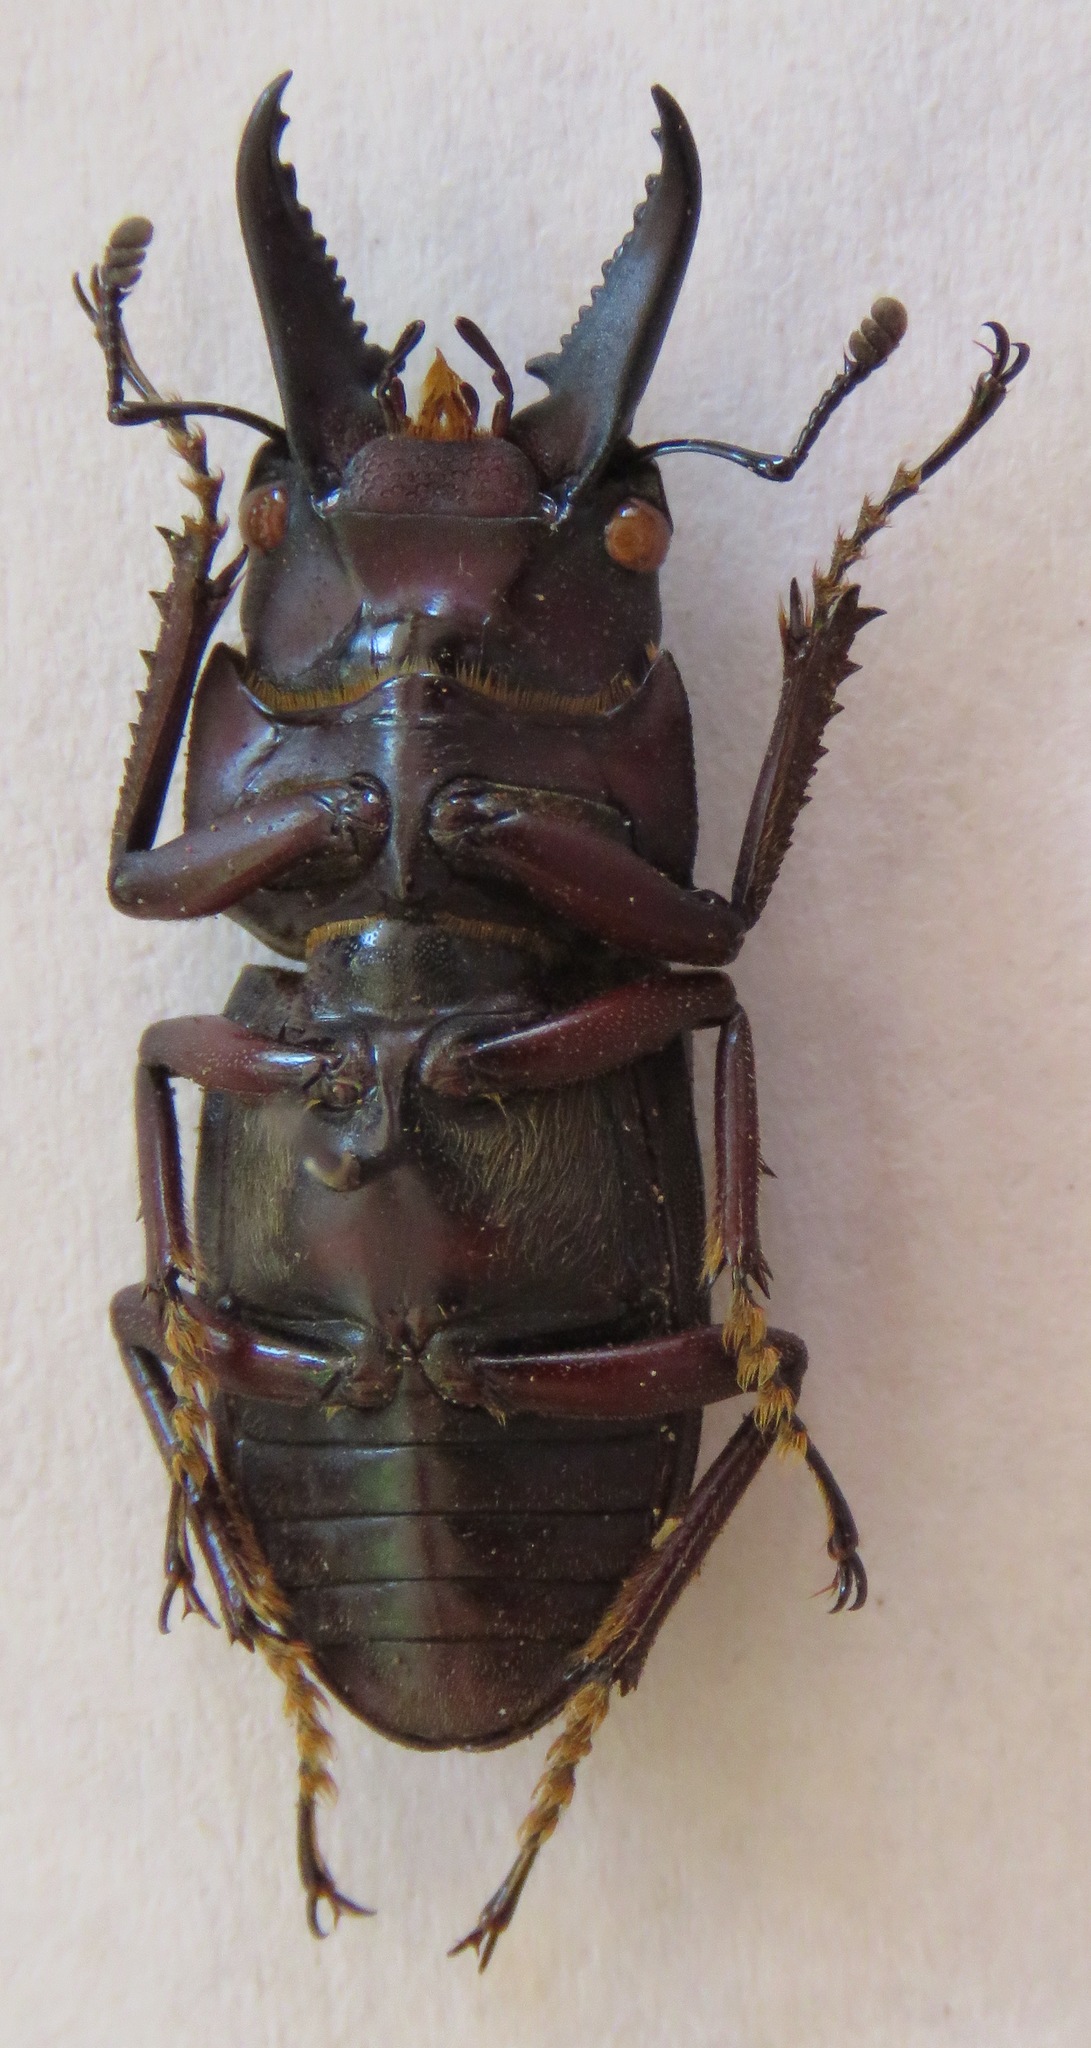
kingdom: Animalia
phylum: Arthropoda
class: Insecta
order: Coleoptera
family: Lucanidae
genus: Epidorcus
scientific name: Epidorcus denticulatus
